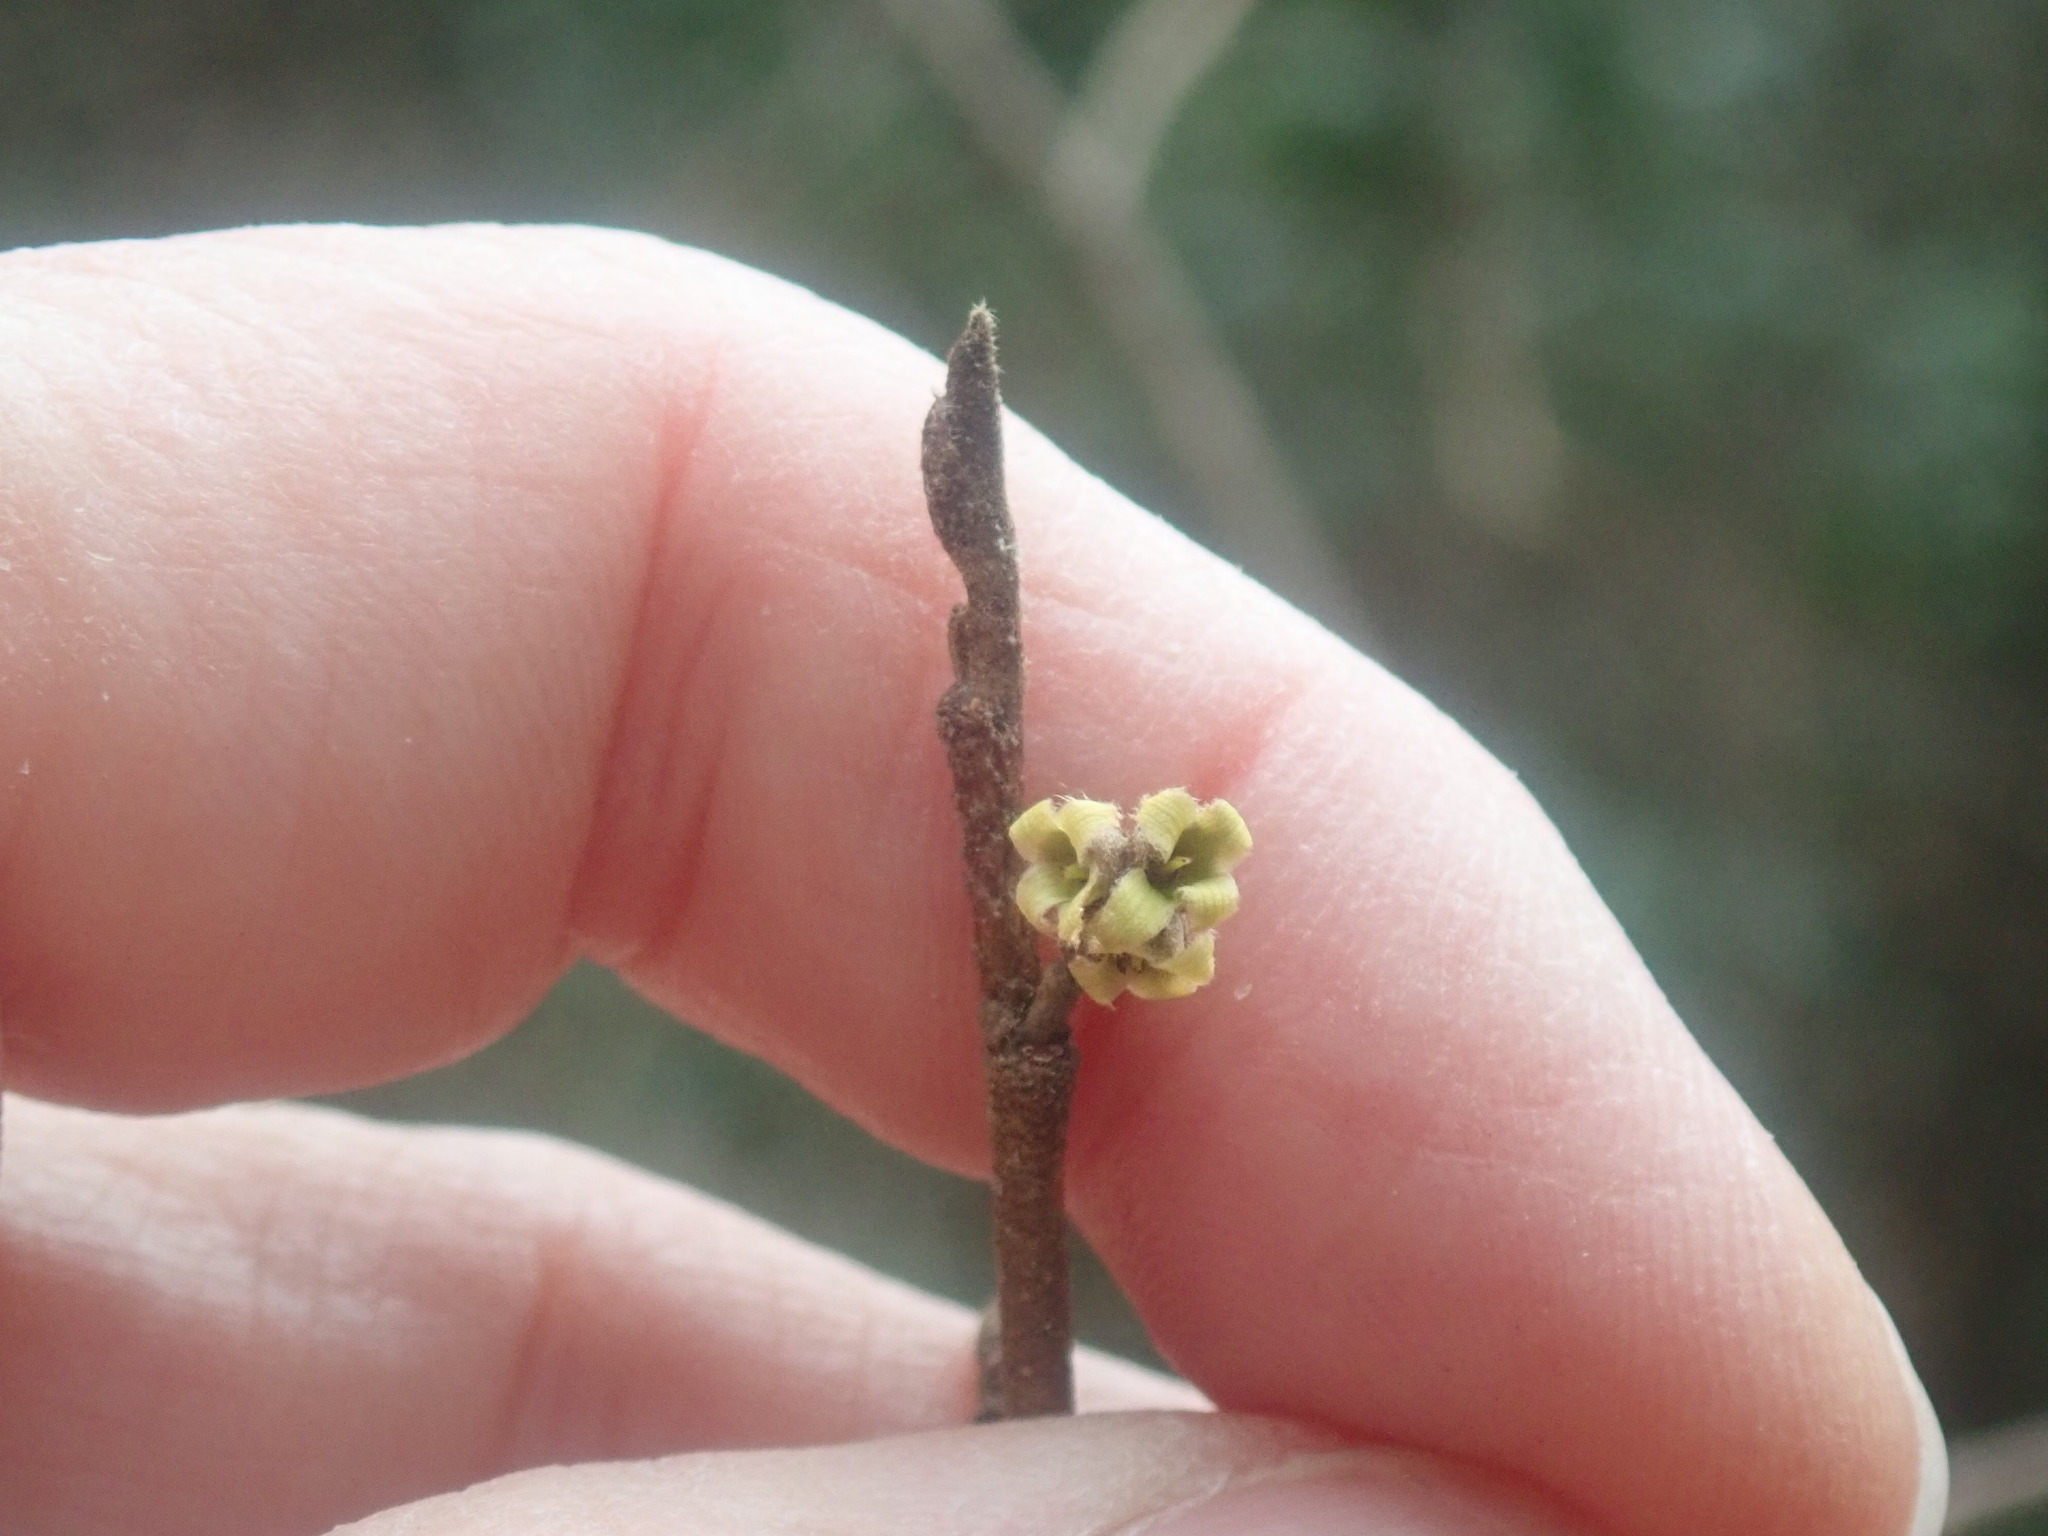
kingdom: Plantae
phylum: Tracheophyta
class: Magnoliopsida
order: Saxifragales
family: Hamamelidaceae
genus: Hamamelis
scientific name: Hamamelis virginiana
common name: Witch-hazel
